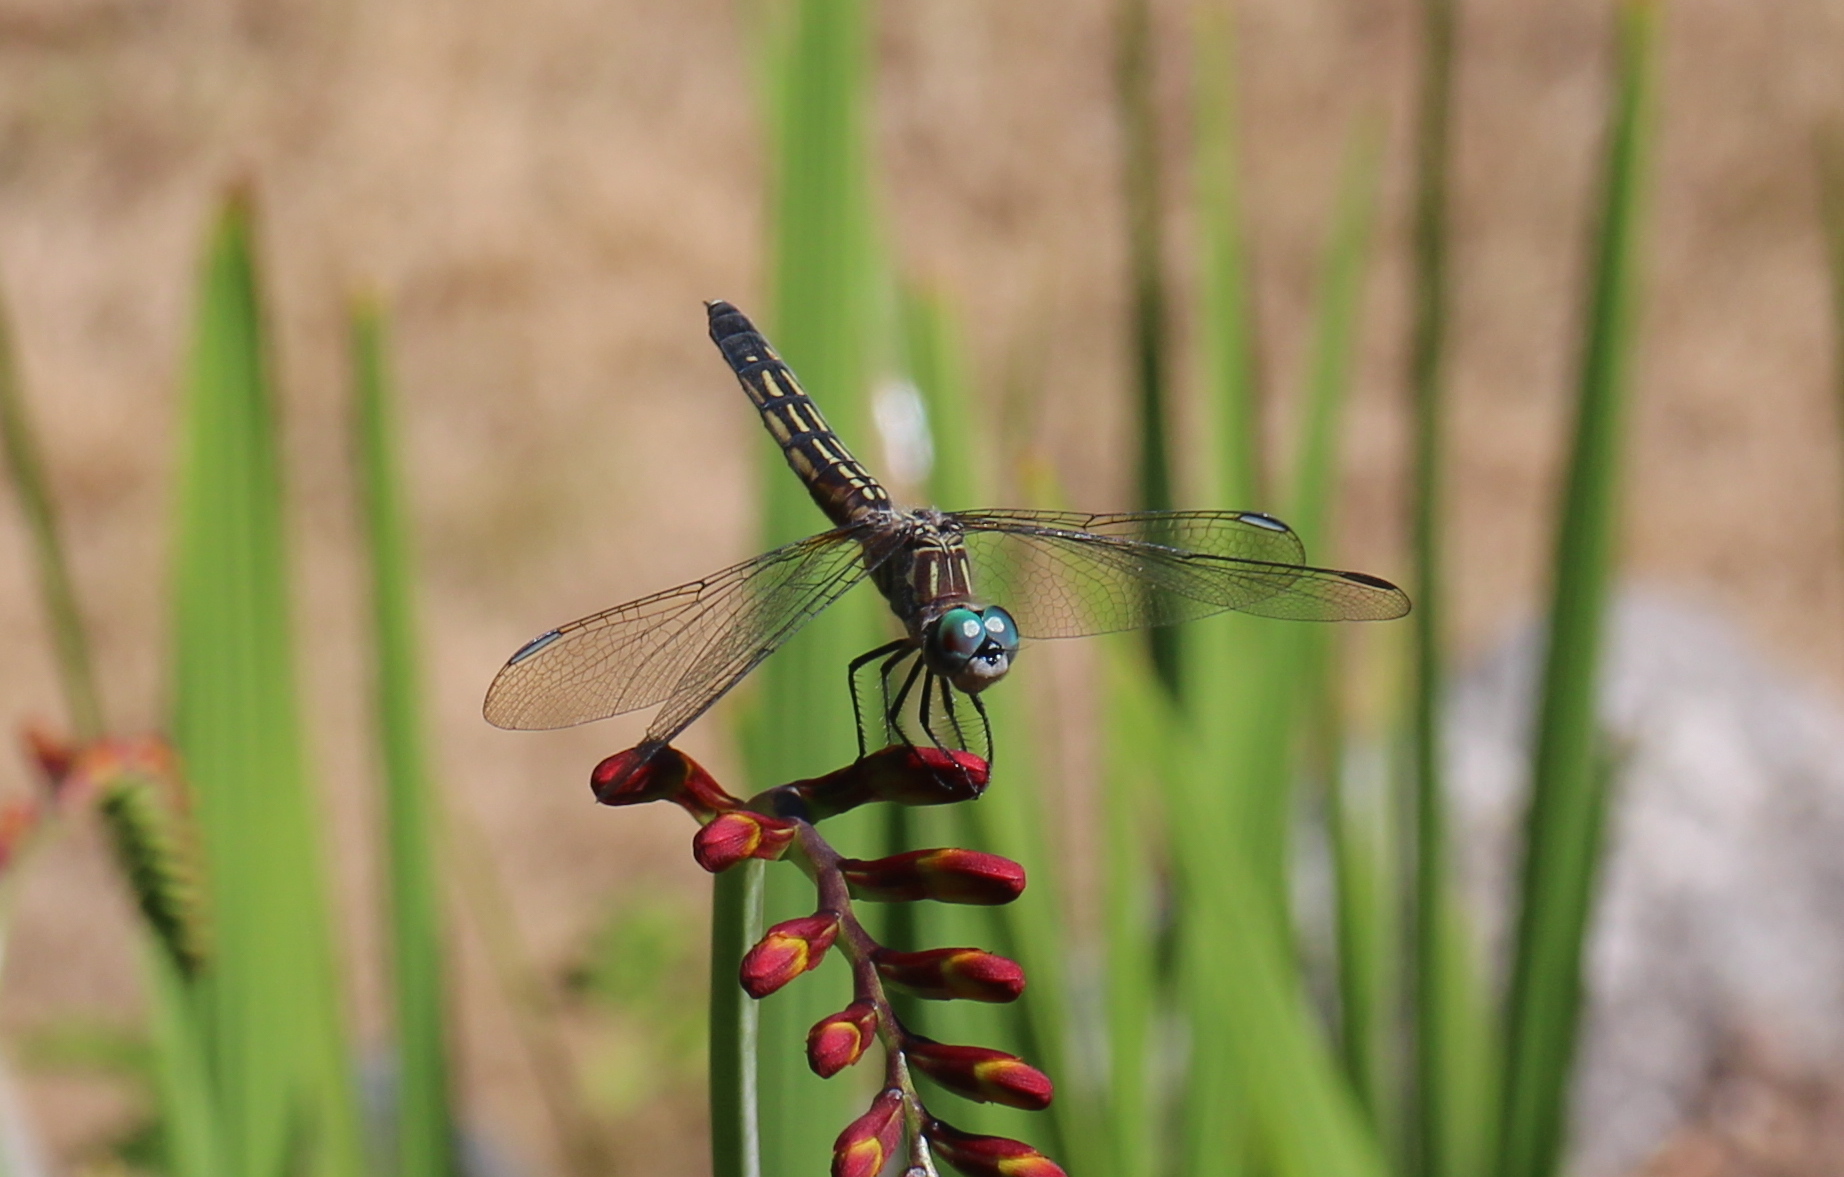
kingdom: Animalia
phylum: Arthropoda
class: Insecta
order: Odonata
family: Libellulidae
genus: Pachydiplax
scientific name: Pachydiplax longipennis
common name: Blue dasher
